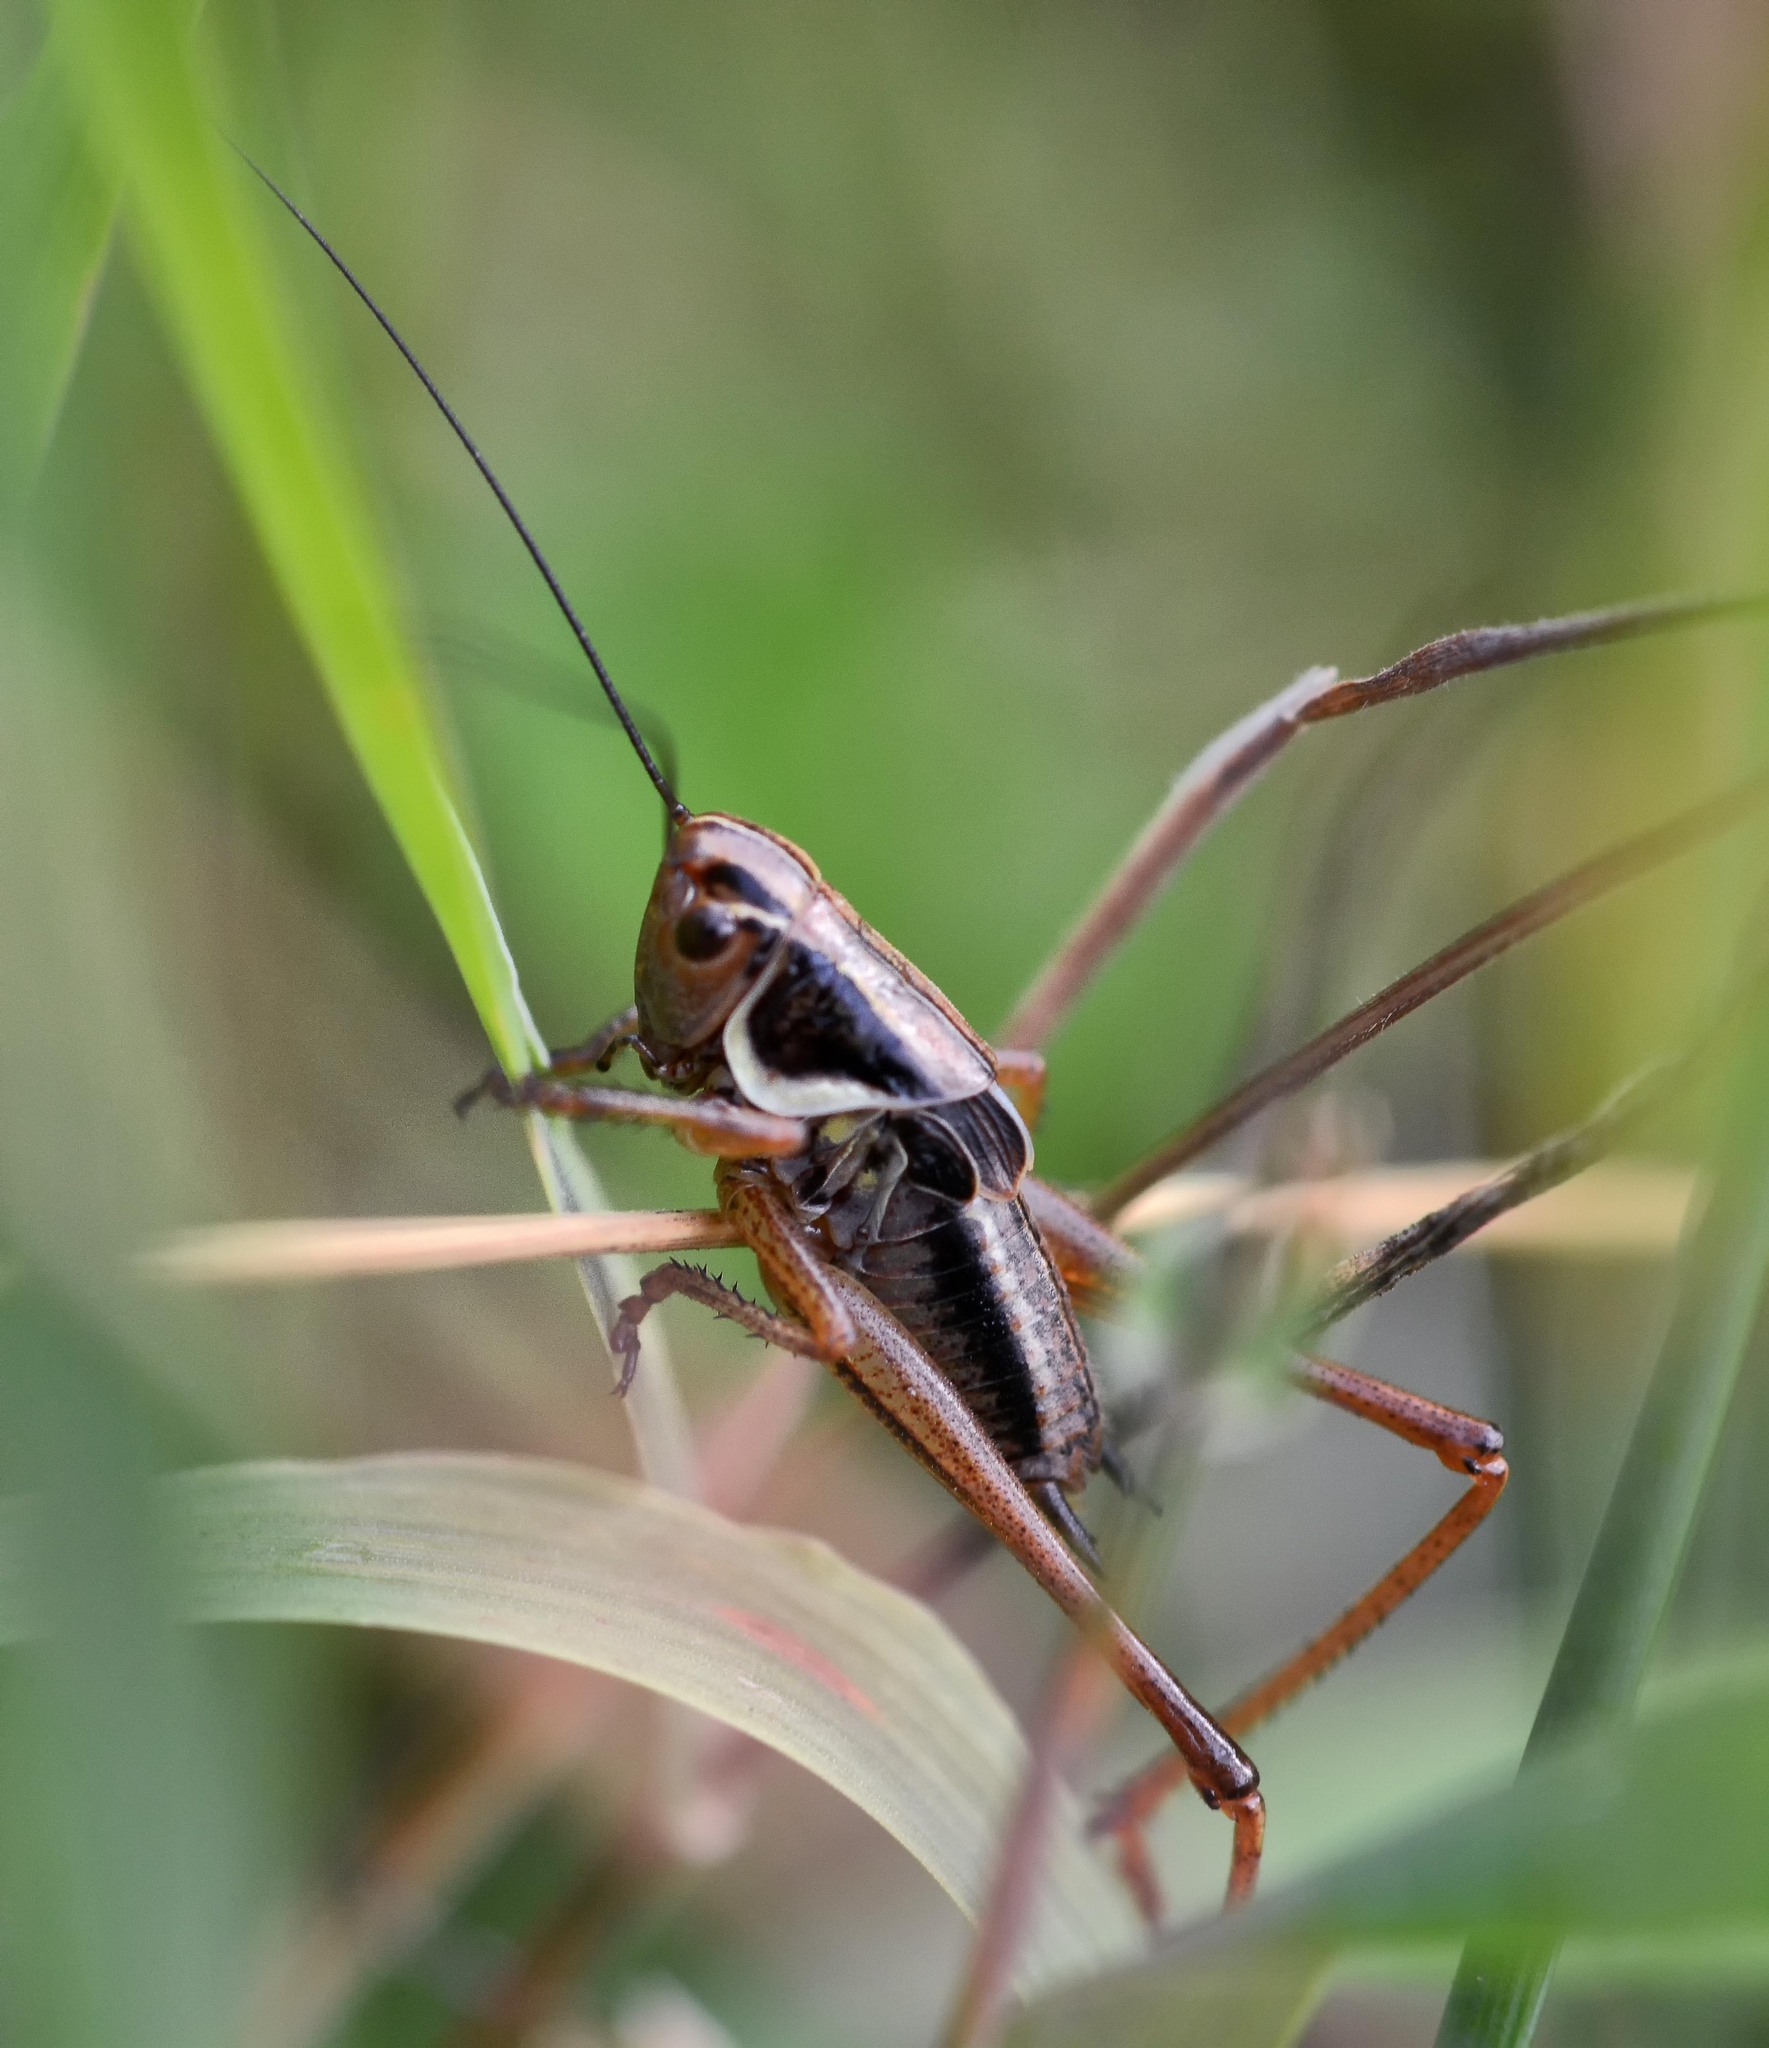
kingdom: Animalia
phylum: Arthropoda
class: Insecta
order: Orthoptera
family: Tettigoniidae
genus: Roeseliana
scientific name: Roeseliana roeselii
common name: Roesel's bush cricket
